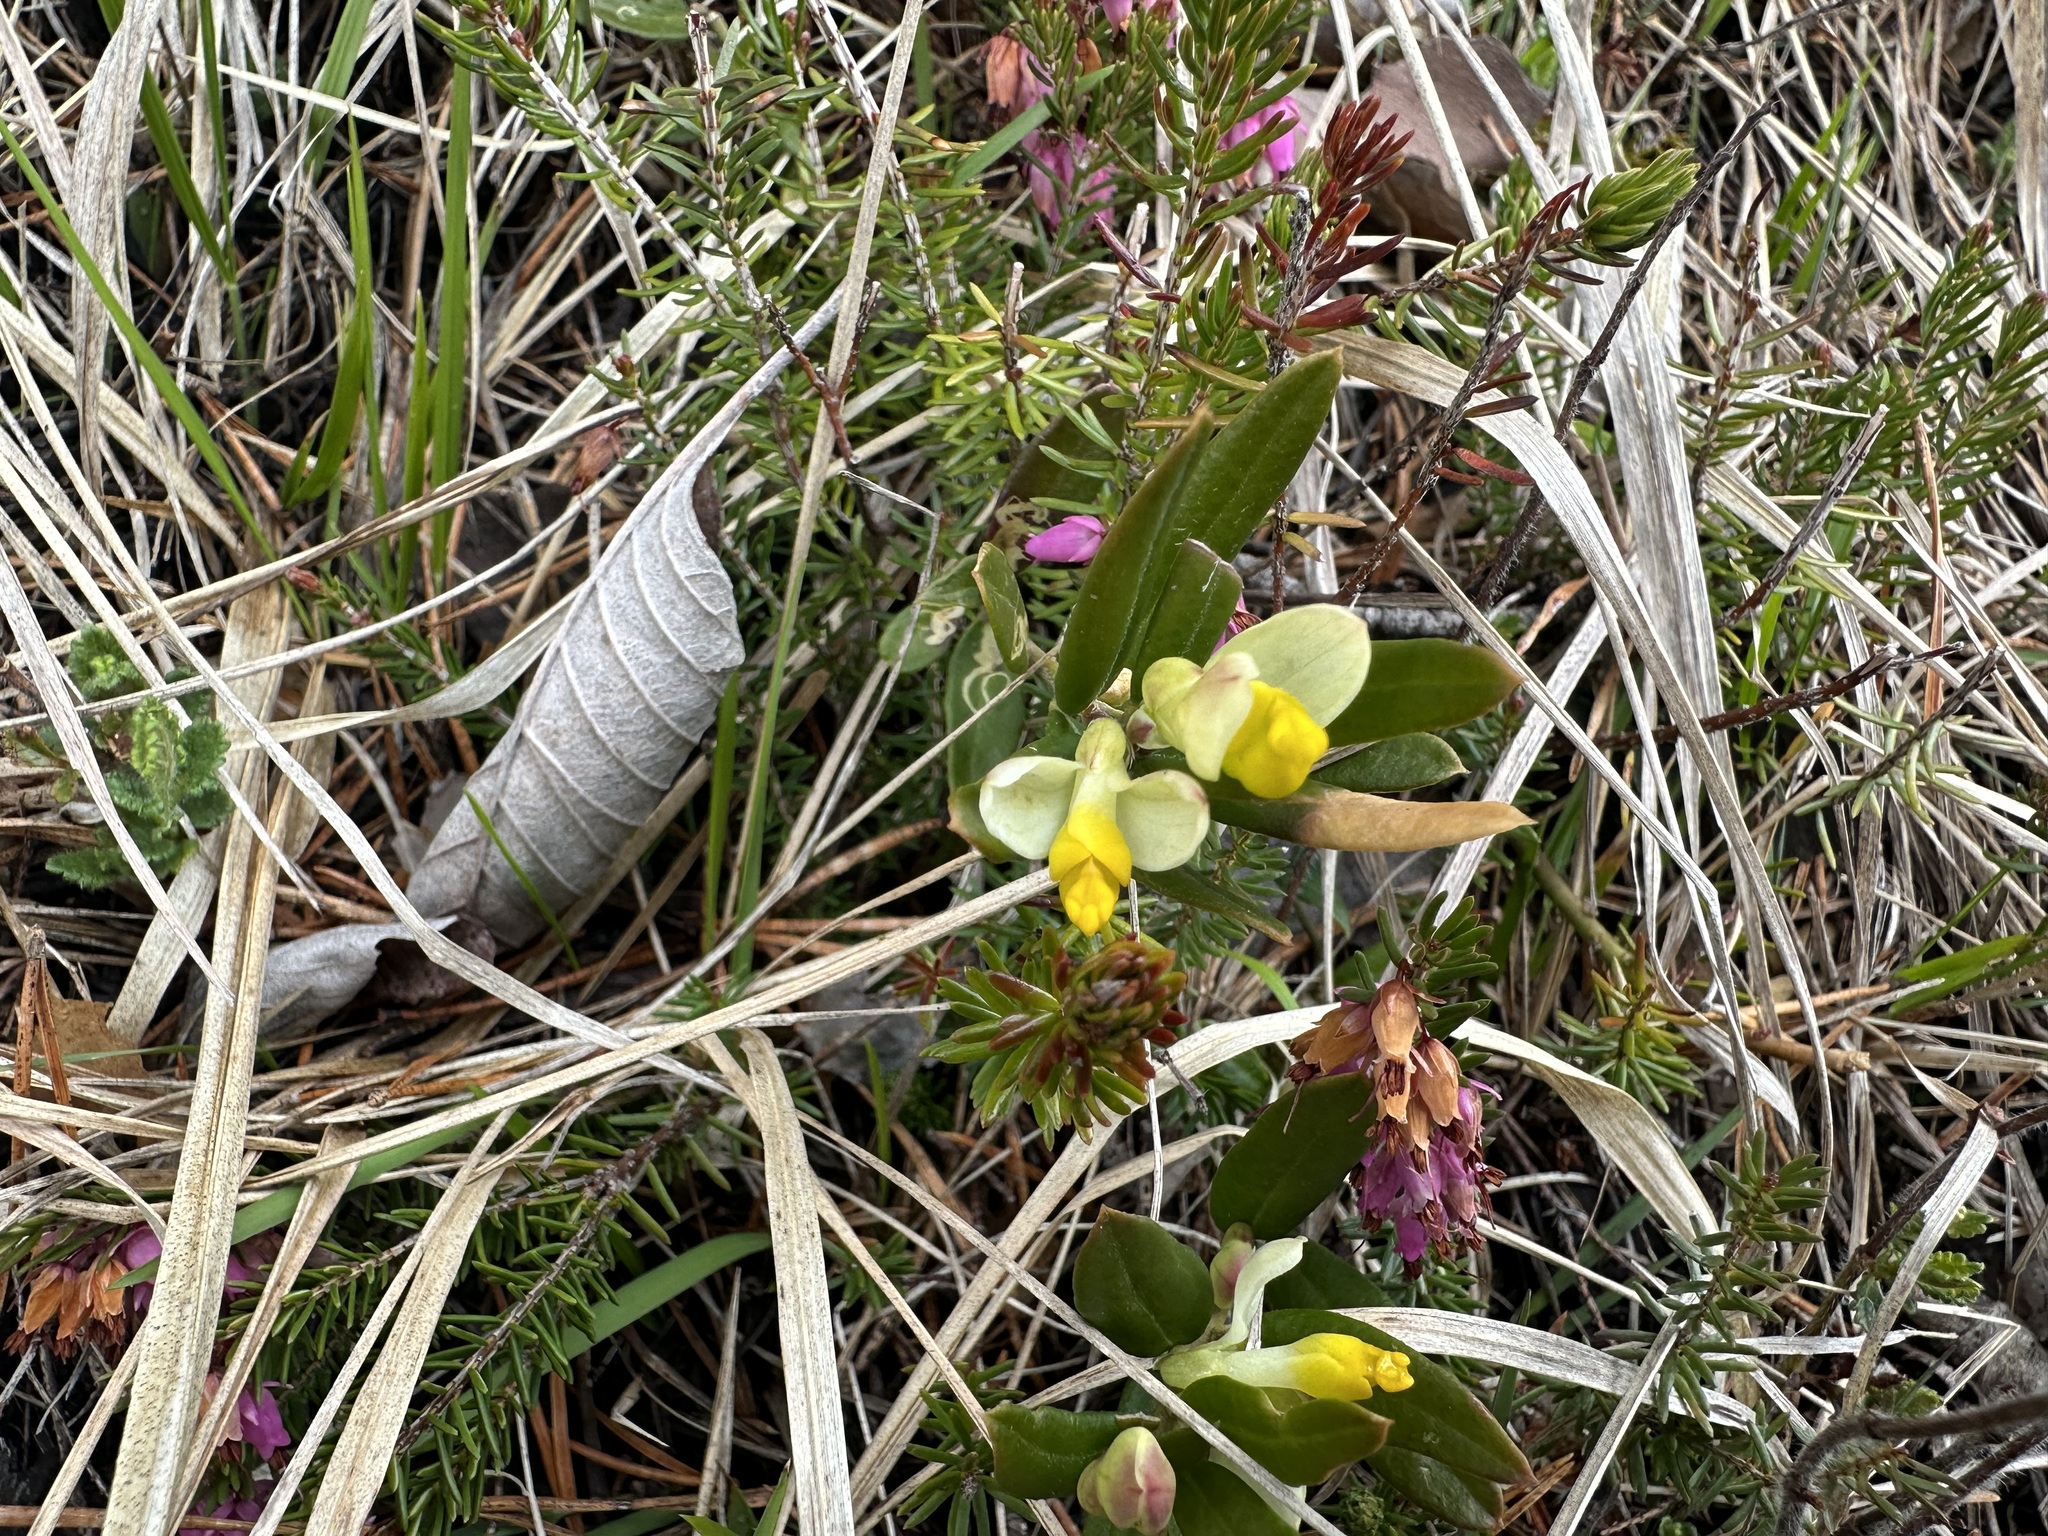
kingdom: Plantae
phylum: Tracheophyta
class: Magnoliopsida
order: Fabales
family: Polygalaceae
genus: Polygaloides
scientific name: Polygaloides chamaebuxus
